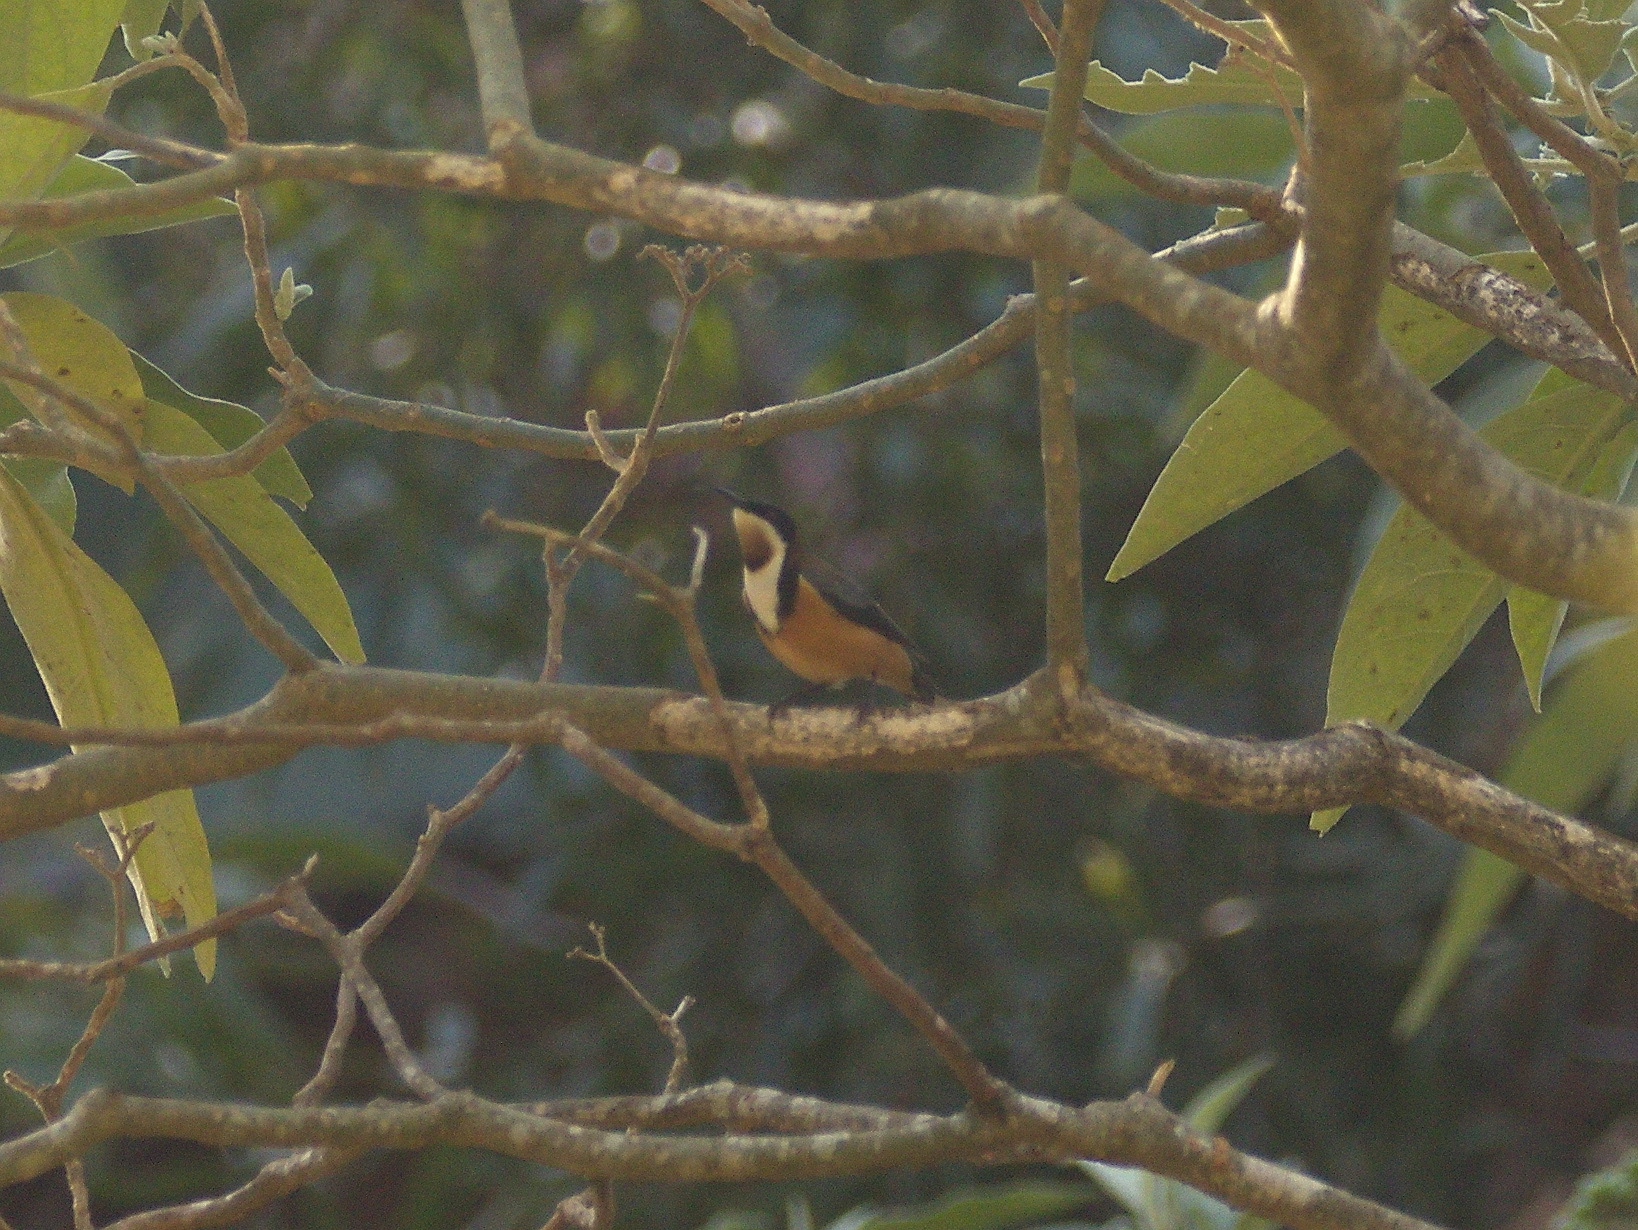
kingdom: Animalia
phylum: Chordata
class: Aves
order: Passeriformes
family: Meliphagidae
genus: Acanthorhynchus
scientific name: Acanthorhynchus tenuirostris
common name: Eastern spinebill
